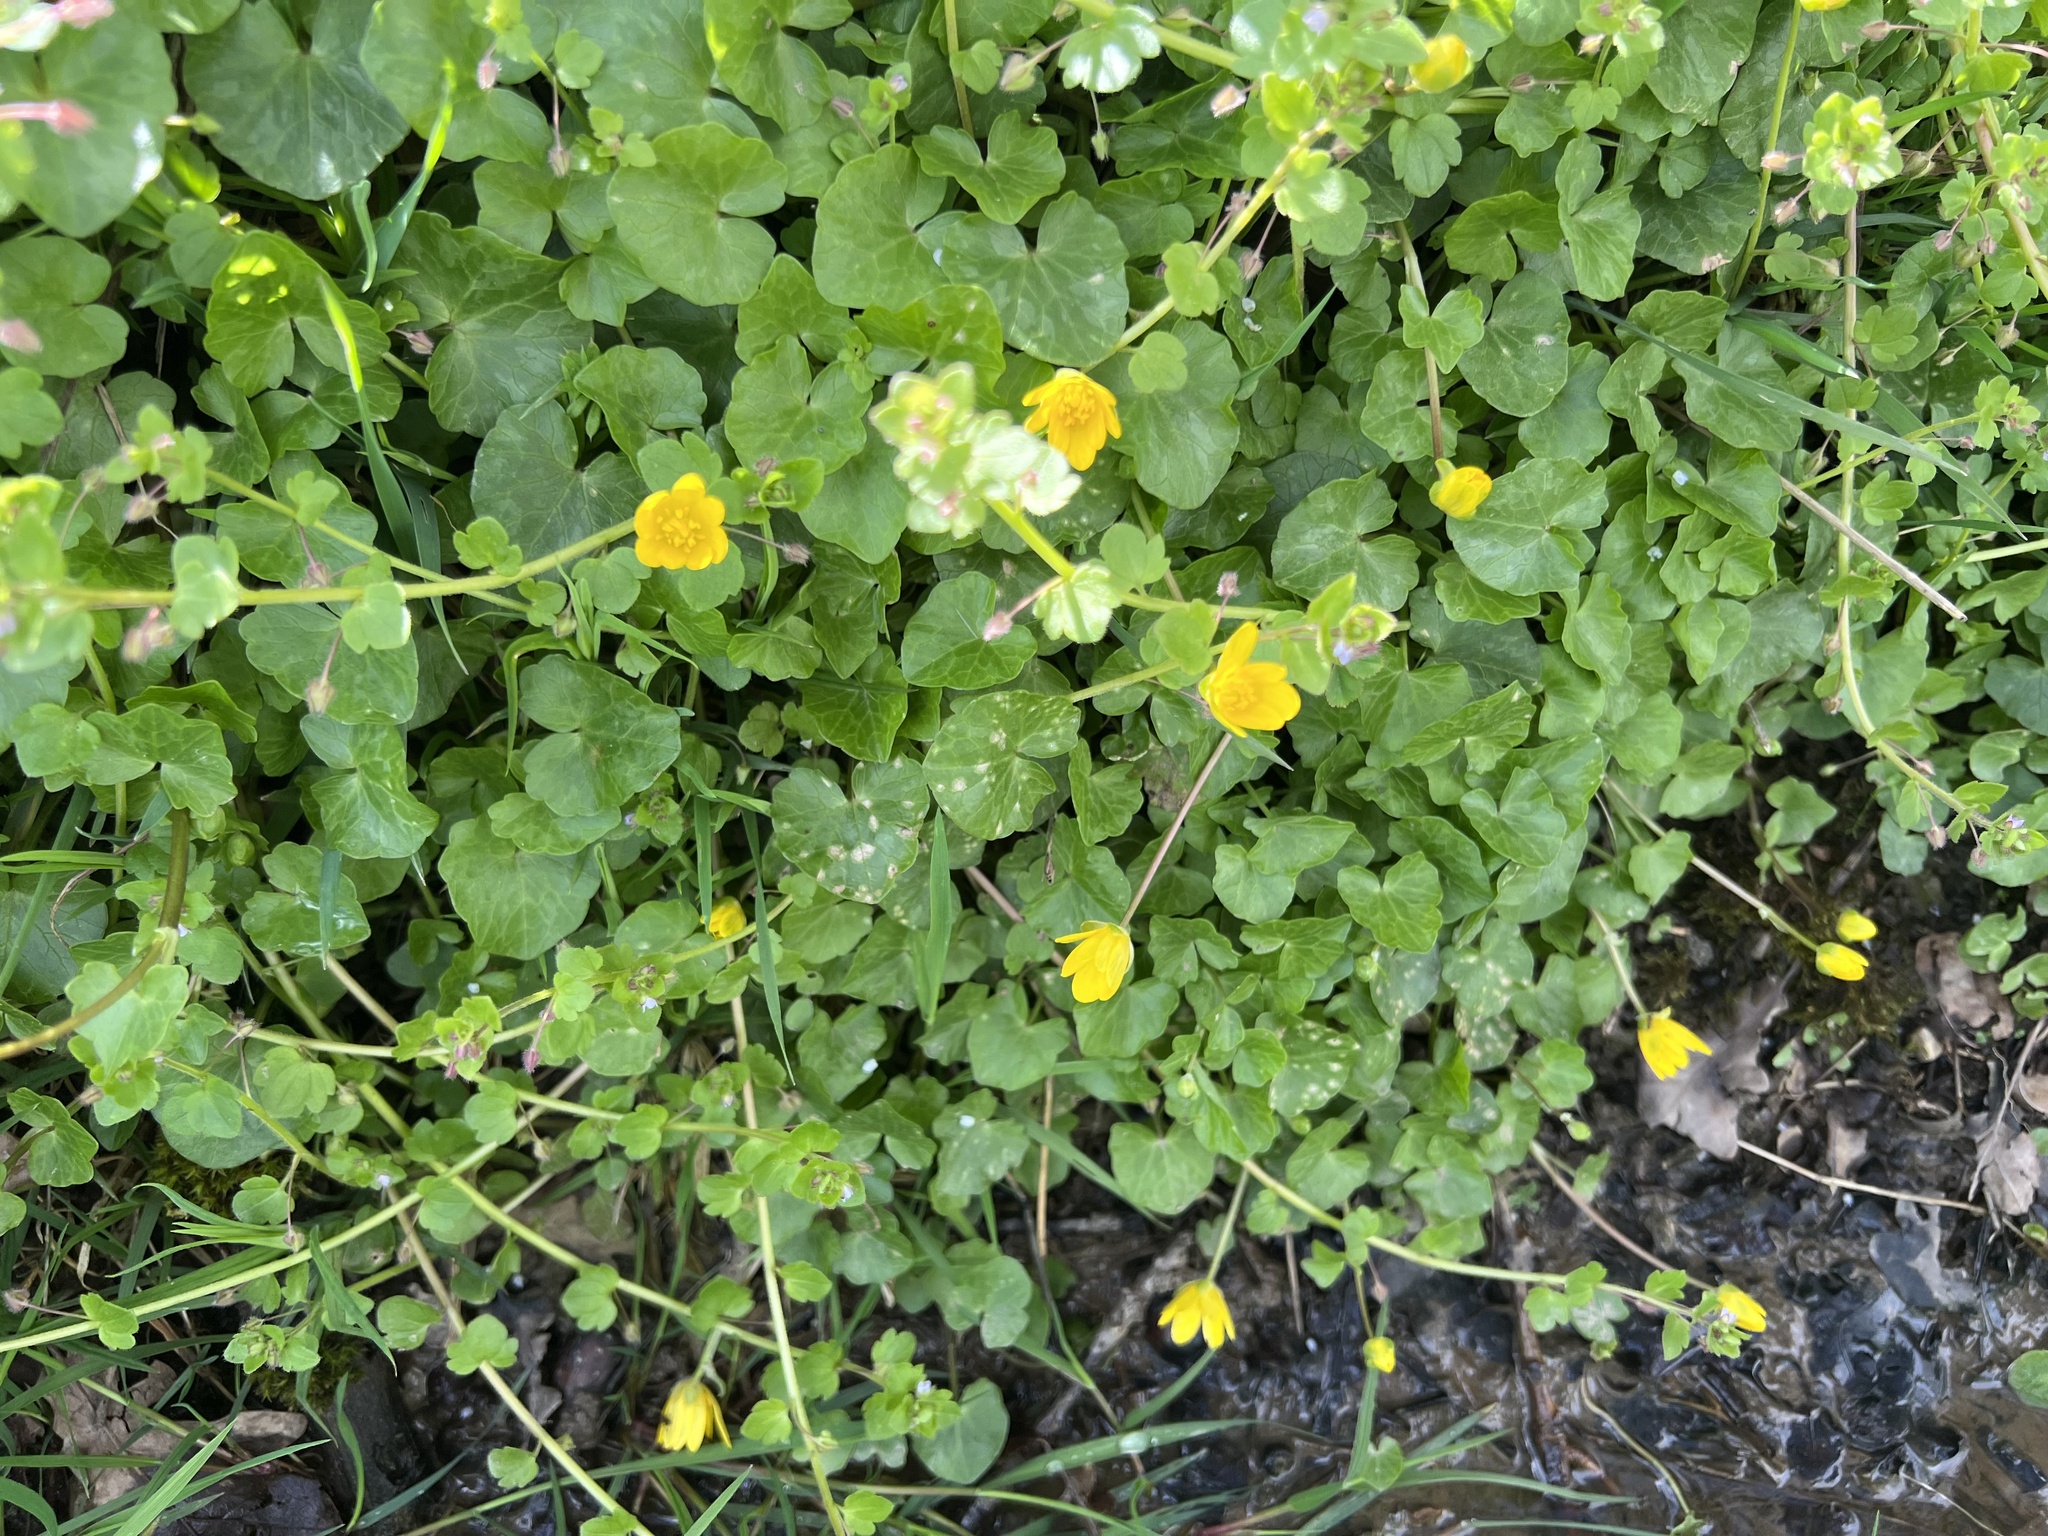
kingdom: Plantae
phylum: Tracheophyta
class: Magnoliopsida
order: Ranunculales
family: Ranunculaceae
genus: Ficaria
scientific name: Ficaria verna
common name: Lesser celandine
